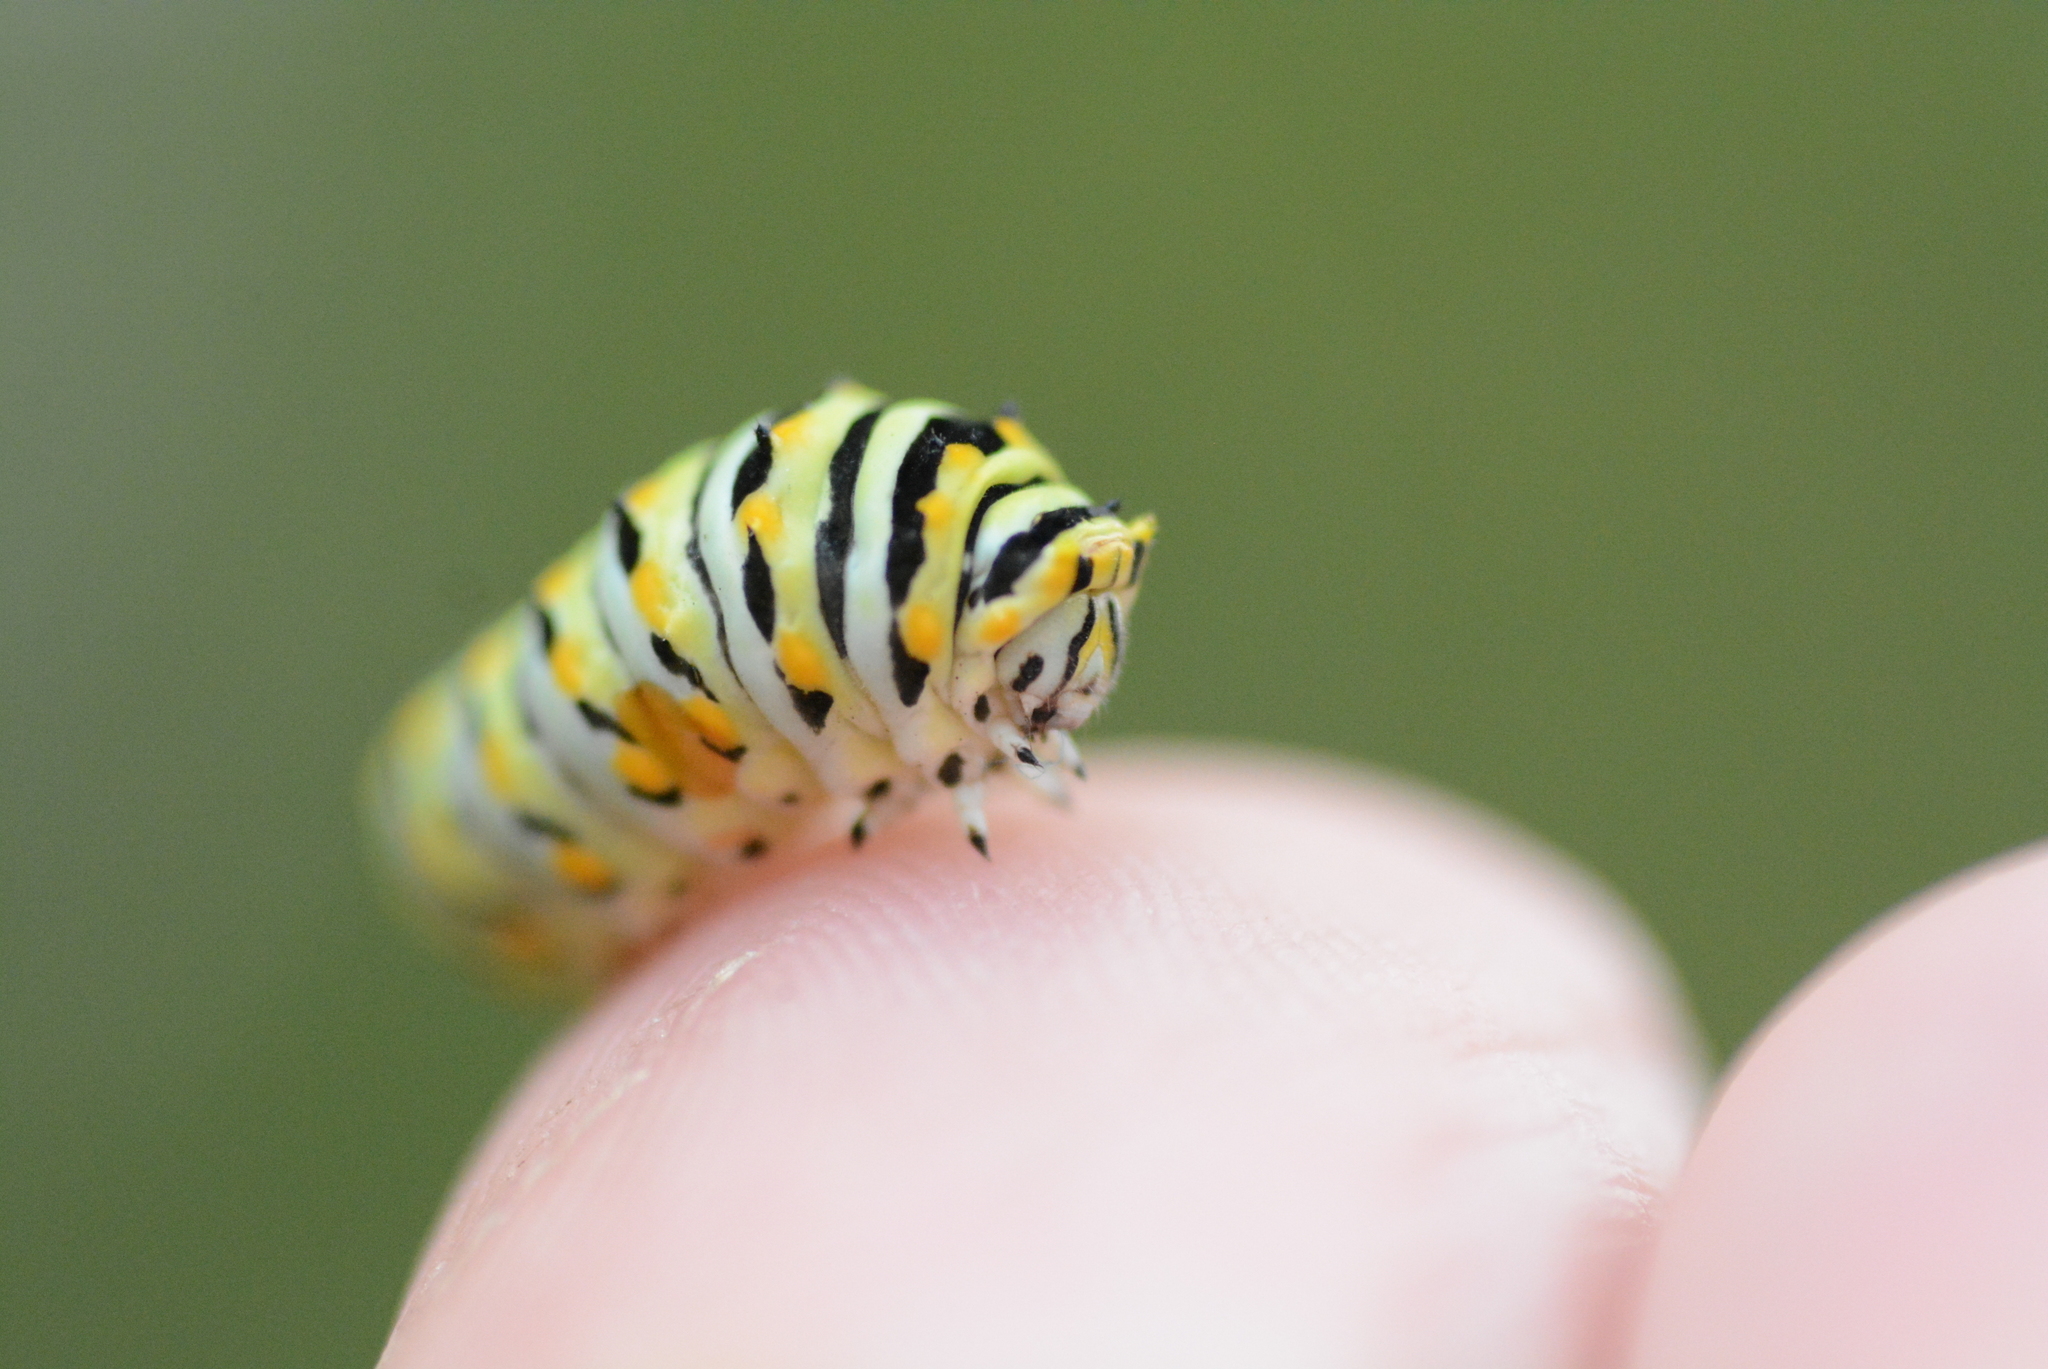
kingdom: Animalia
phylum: Arthropoda
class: Insecta
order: Lepidoptera
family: Papilionidae
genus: Papilio
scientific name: Papilio polyxenes
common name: Black swallowtail
